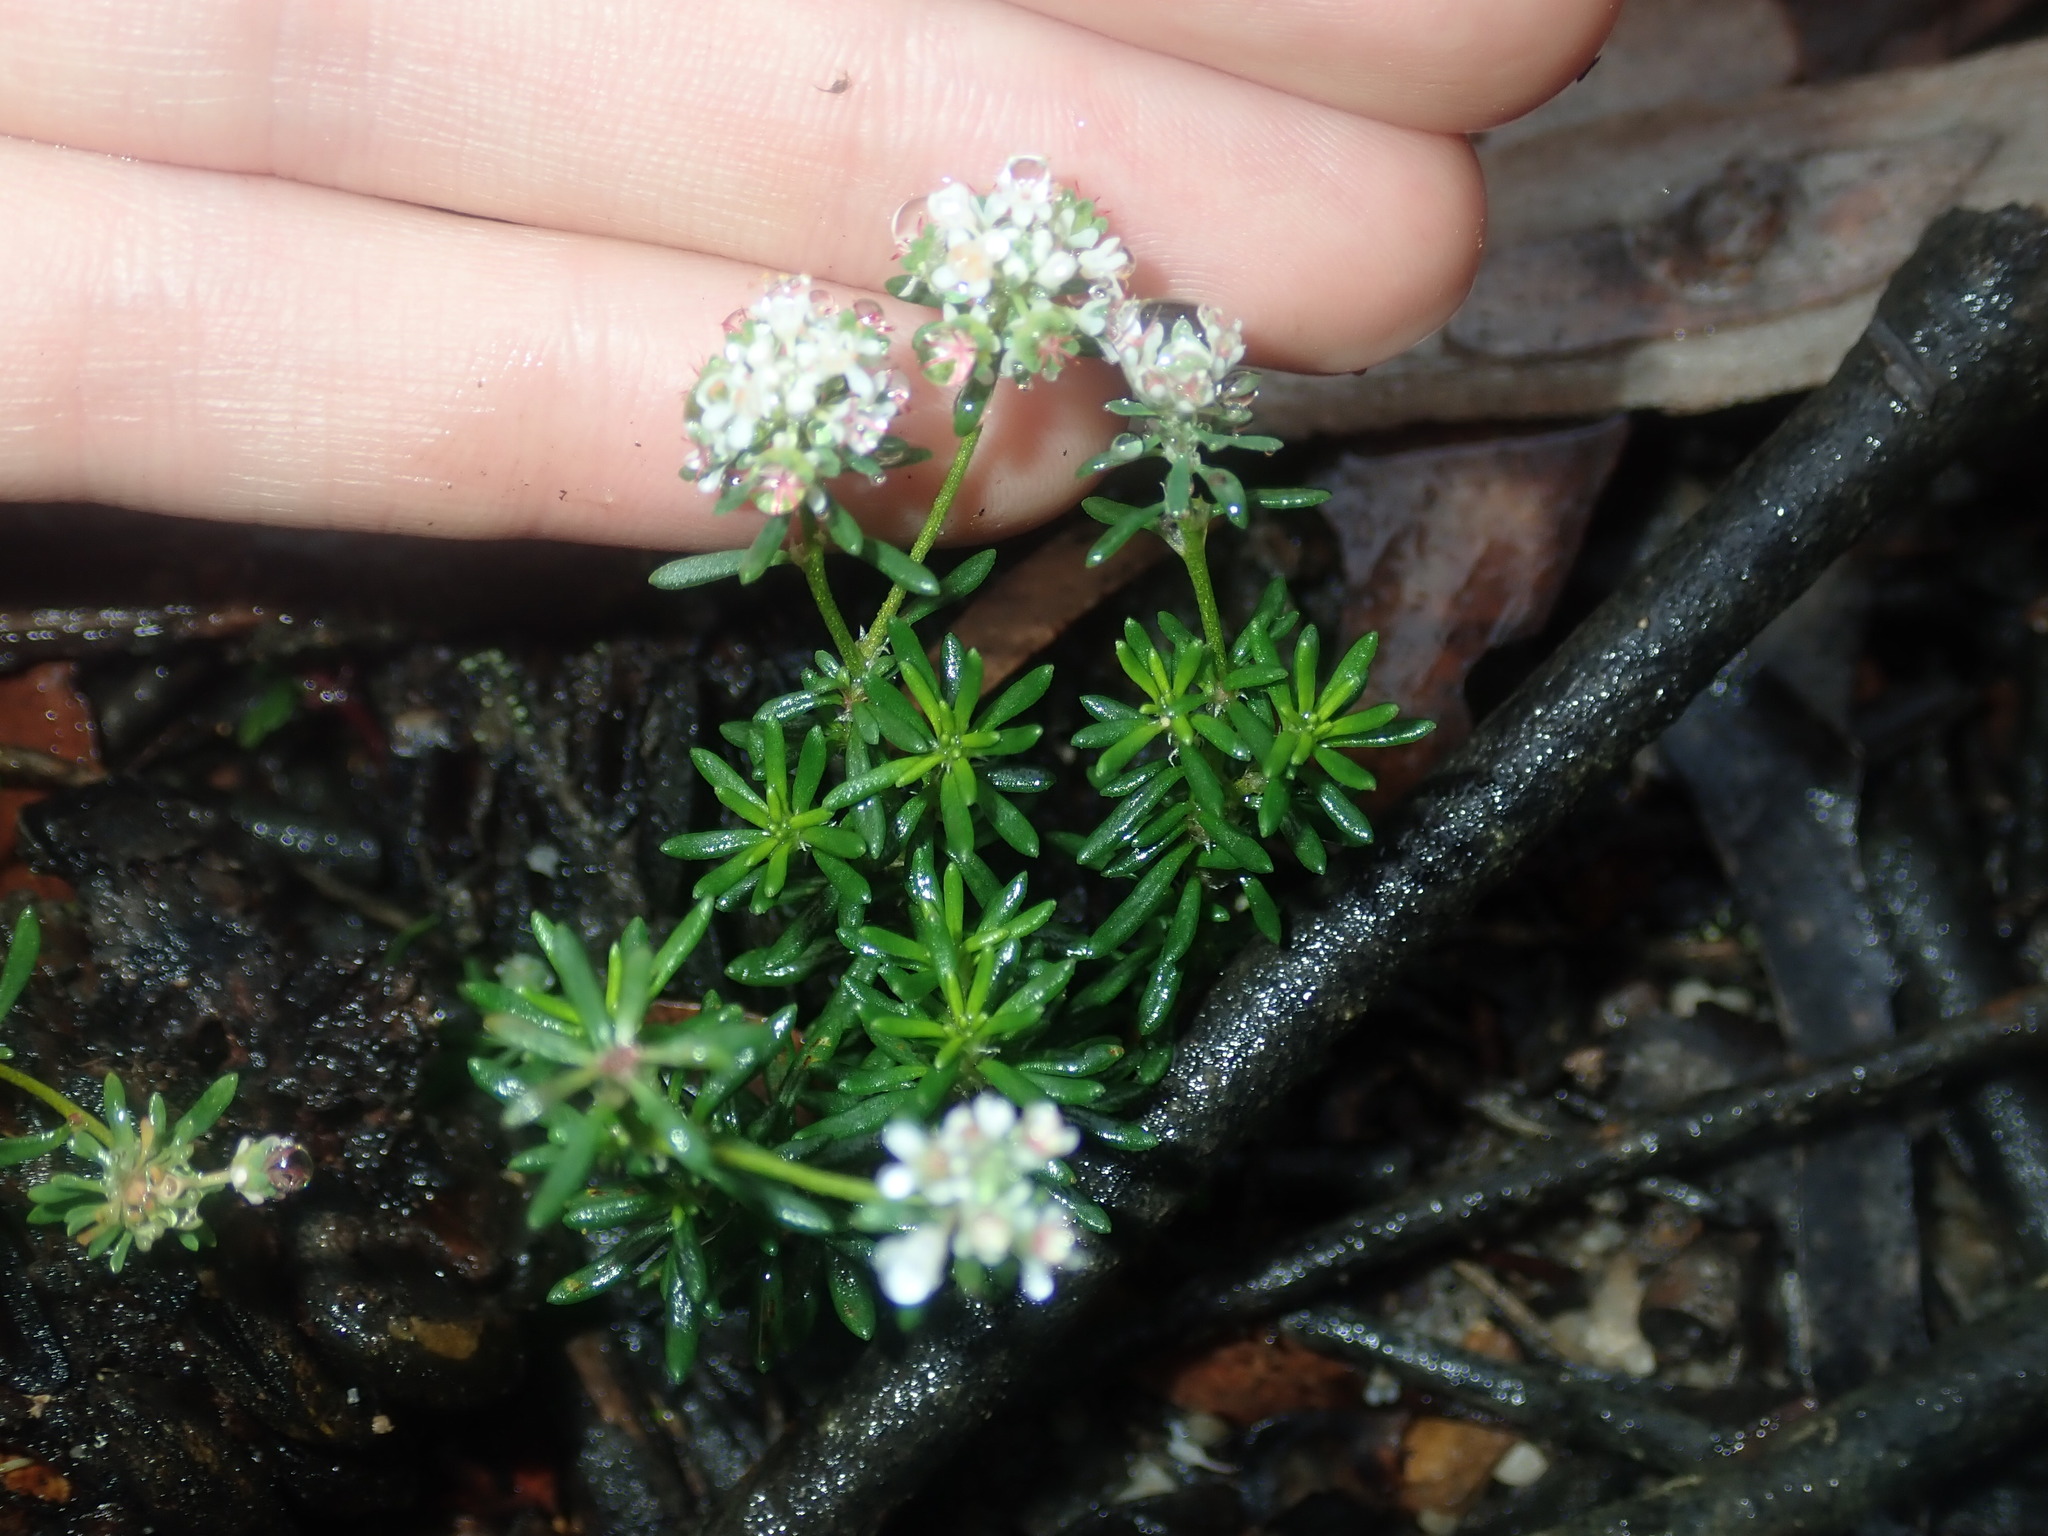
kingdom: Plantae
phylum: Tracheophyta
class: Magnoliopsida
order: Malpighiales
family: Phyllanthaceae
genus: Poranthera
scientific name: Poranthera ericifolia
